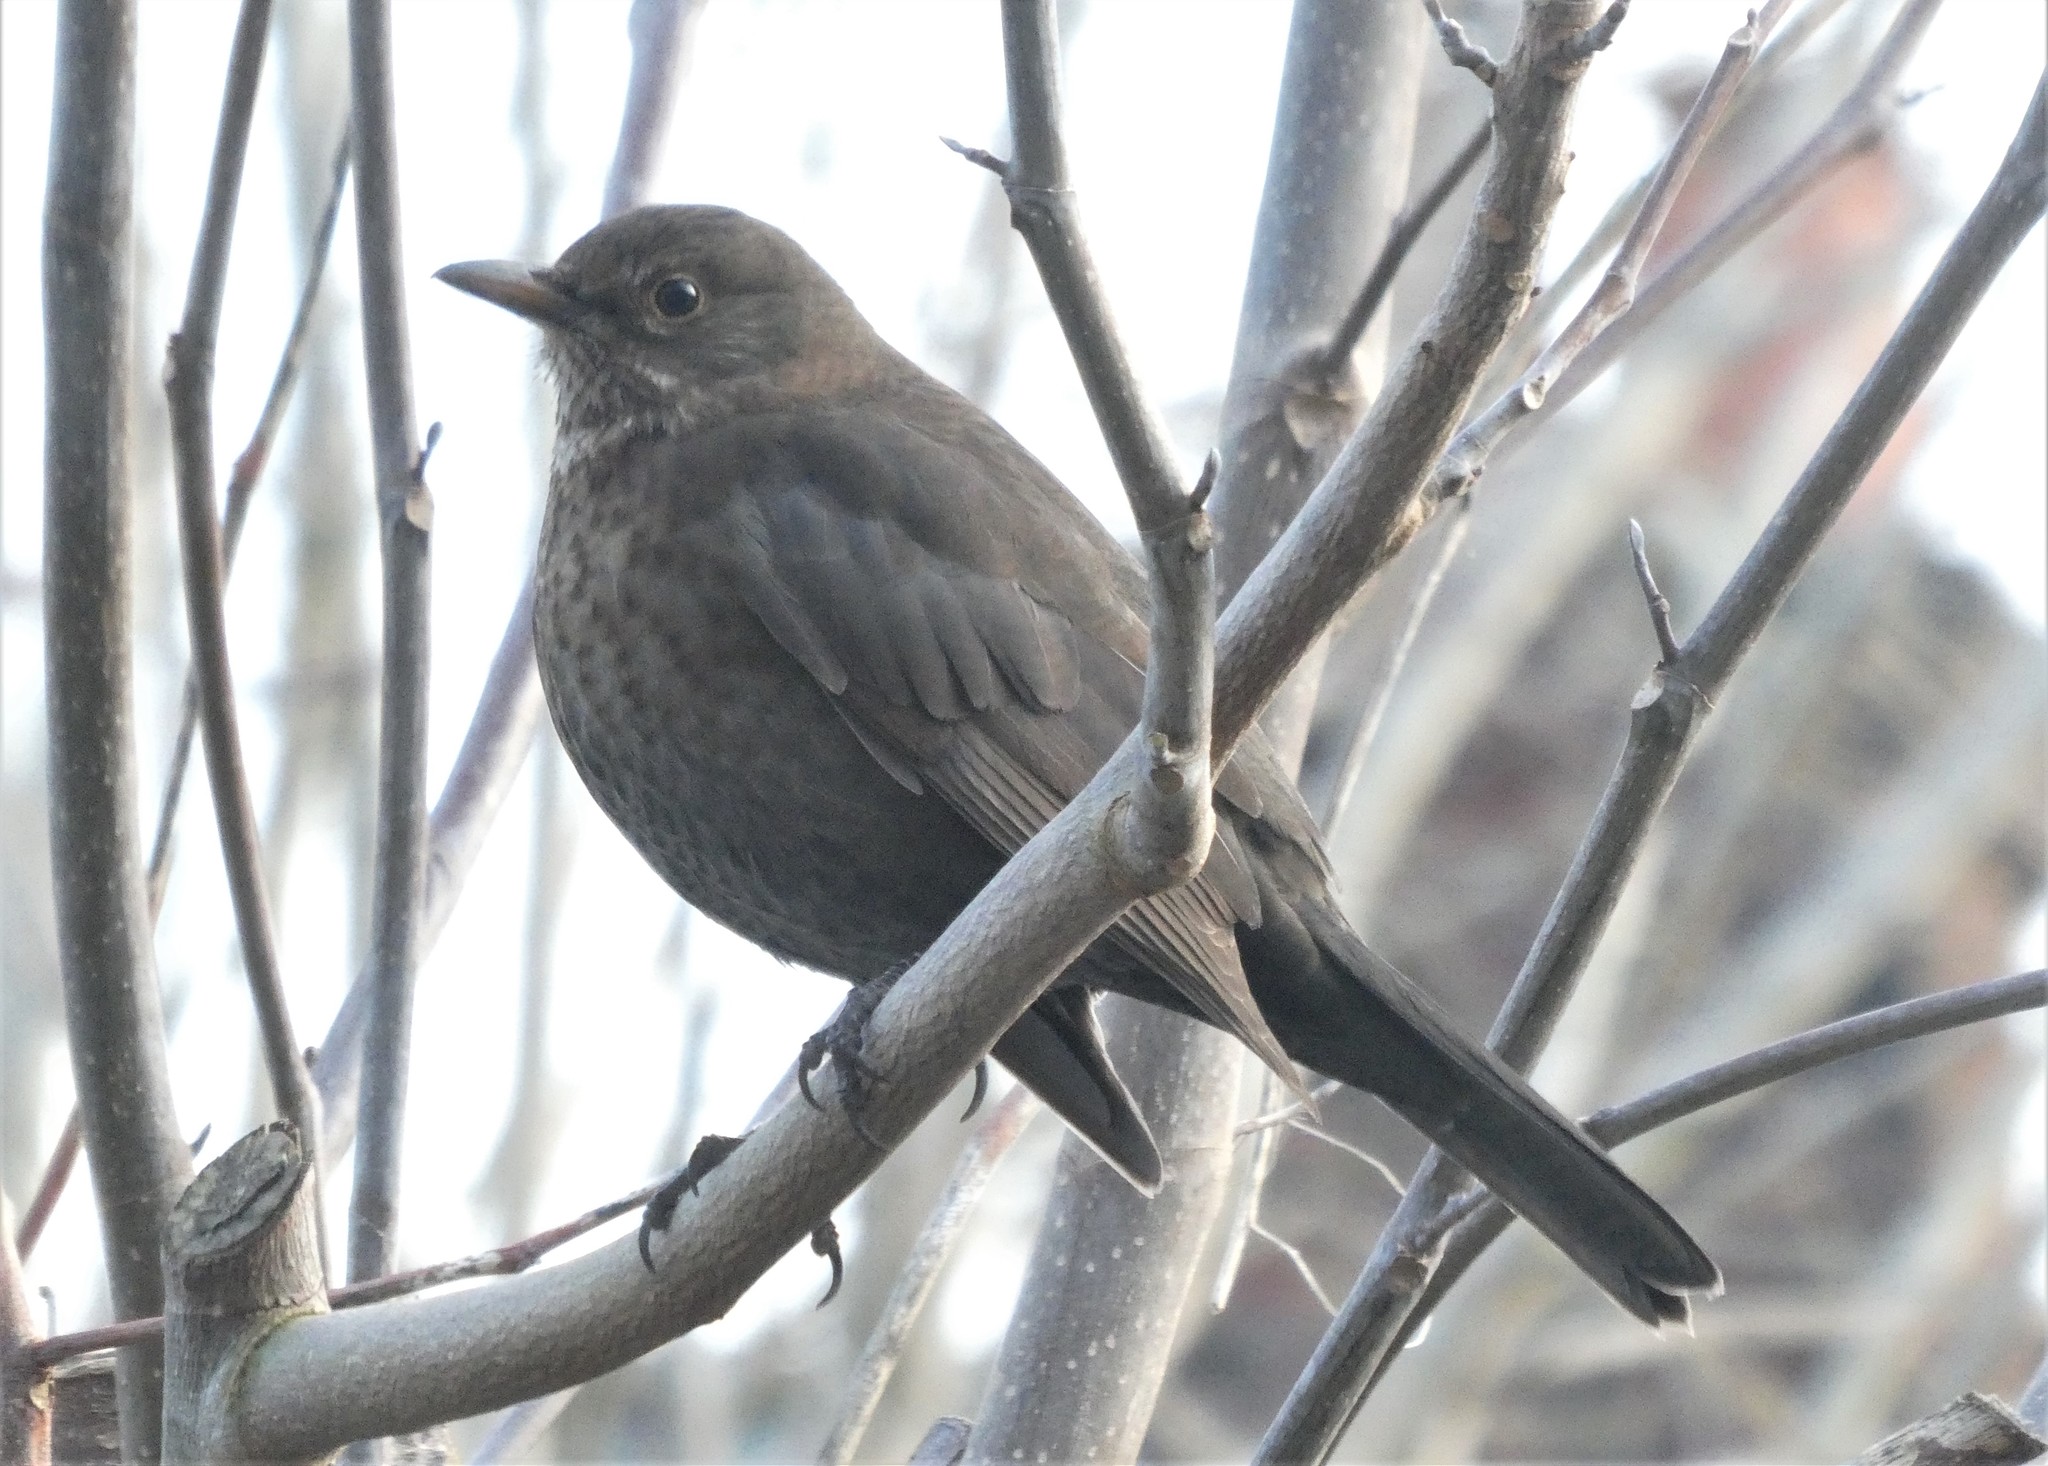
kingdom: Animalia
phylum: Chordata
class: Aves
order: Passeriformes
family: Turdidae
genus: Turdus
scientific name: Turdus merula
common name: Common blackbird
